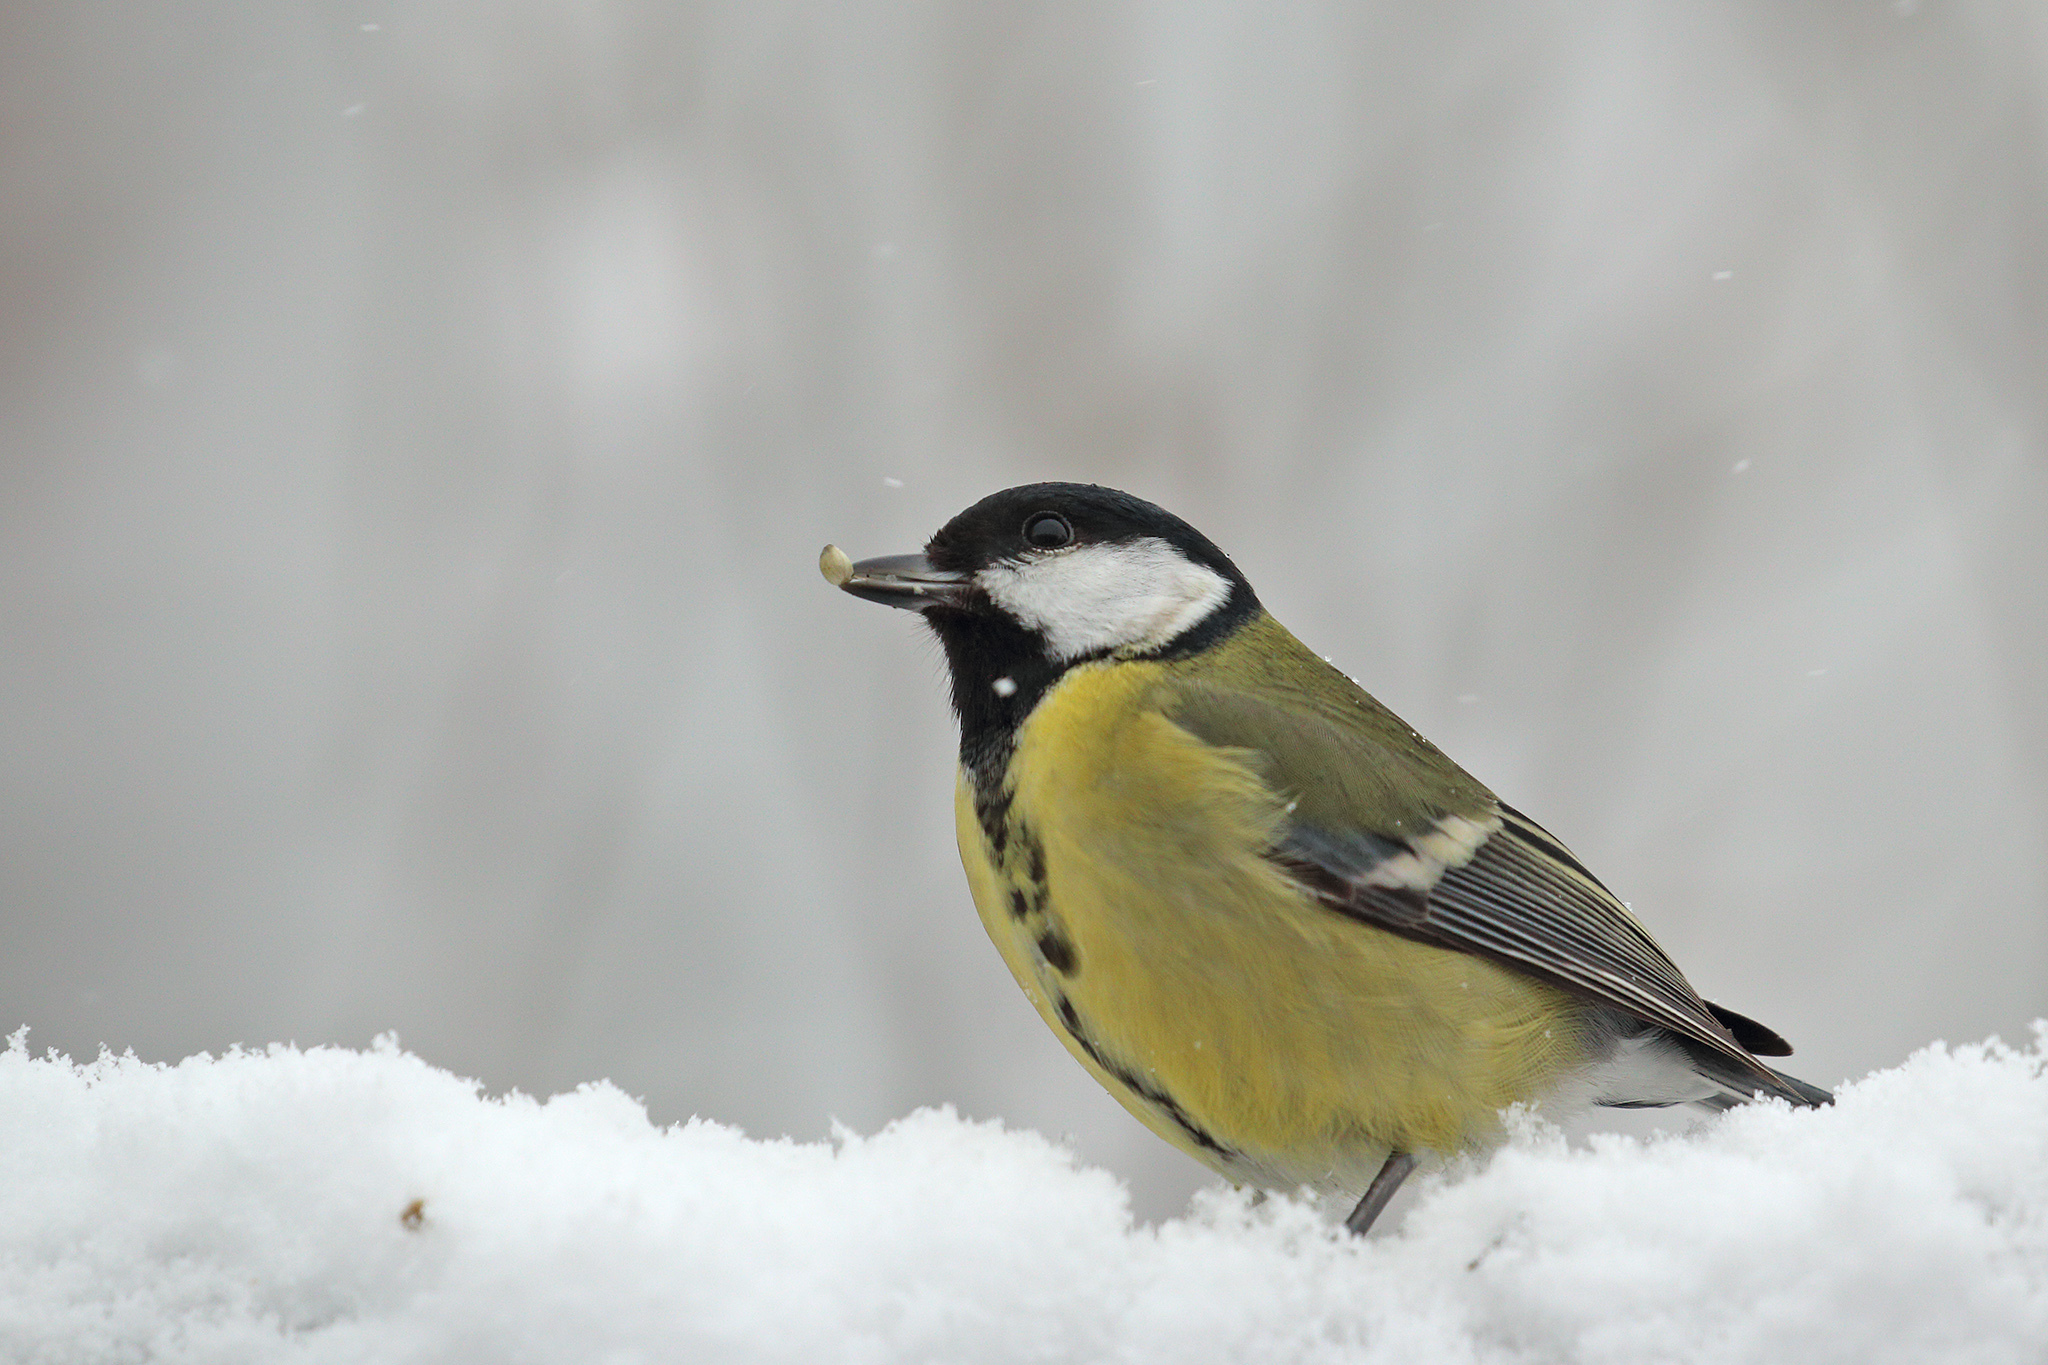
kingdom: Animalia
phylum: Chordata
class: Aves
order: Passeriformes
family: Paridae
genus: Parus
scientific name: Parus major
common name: Great tit
